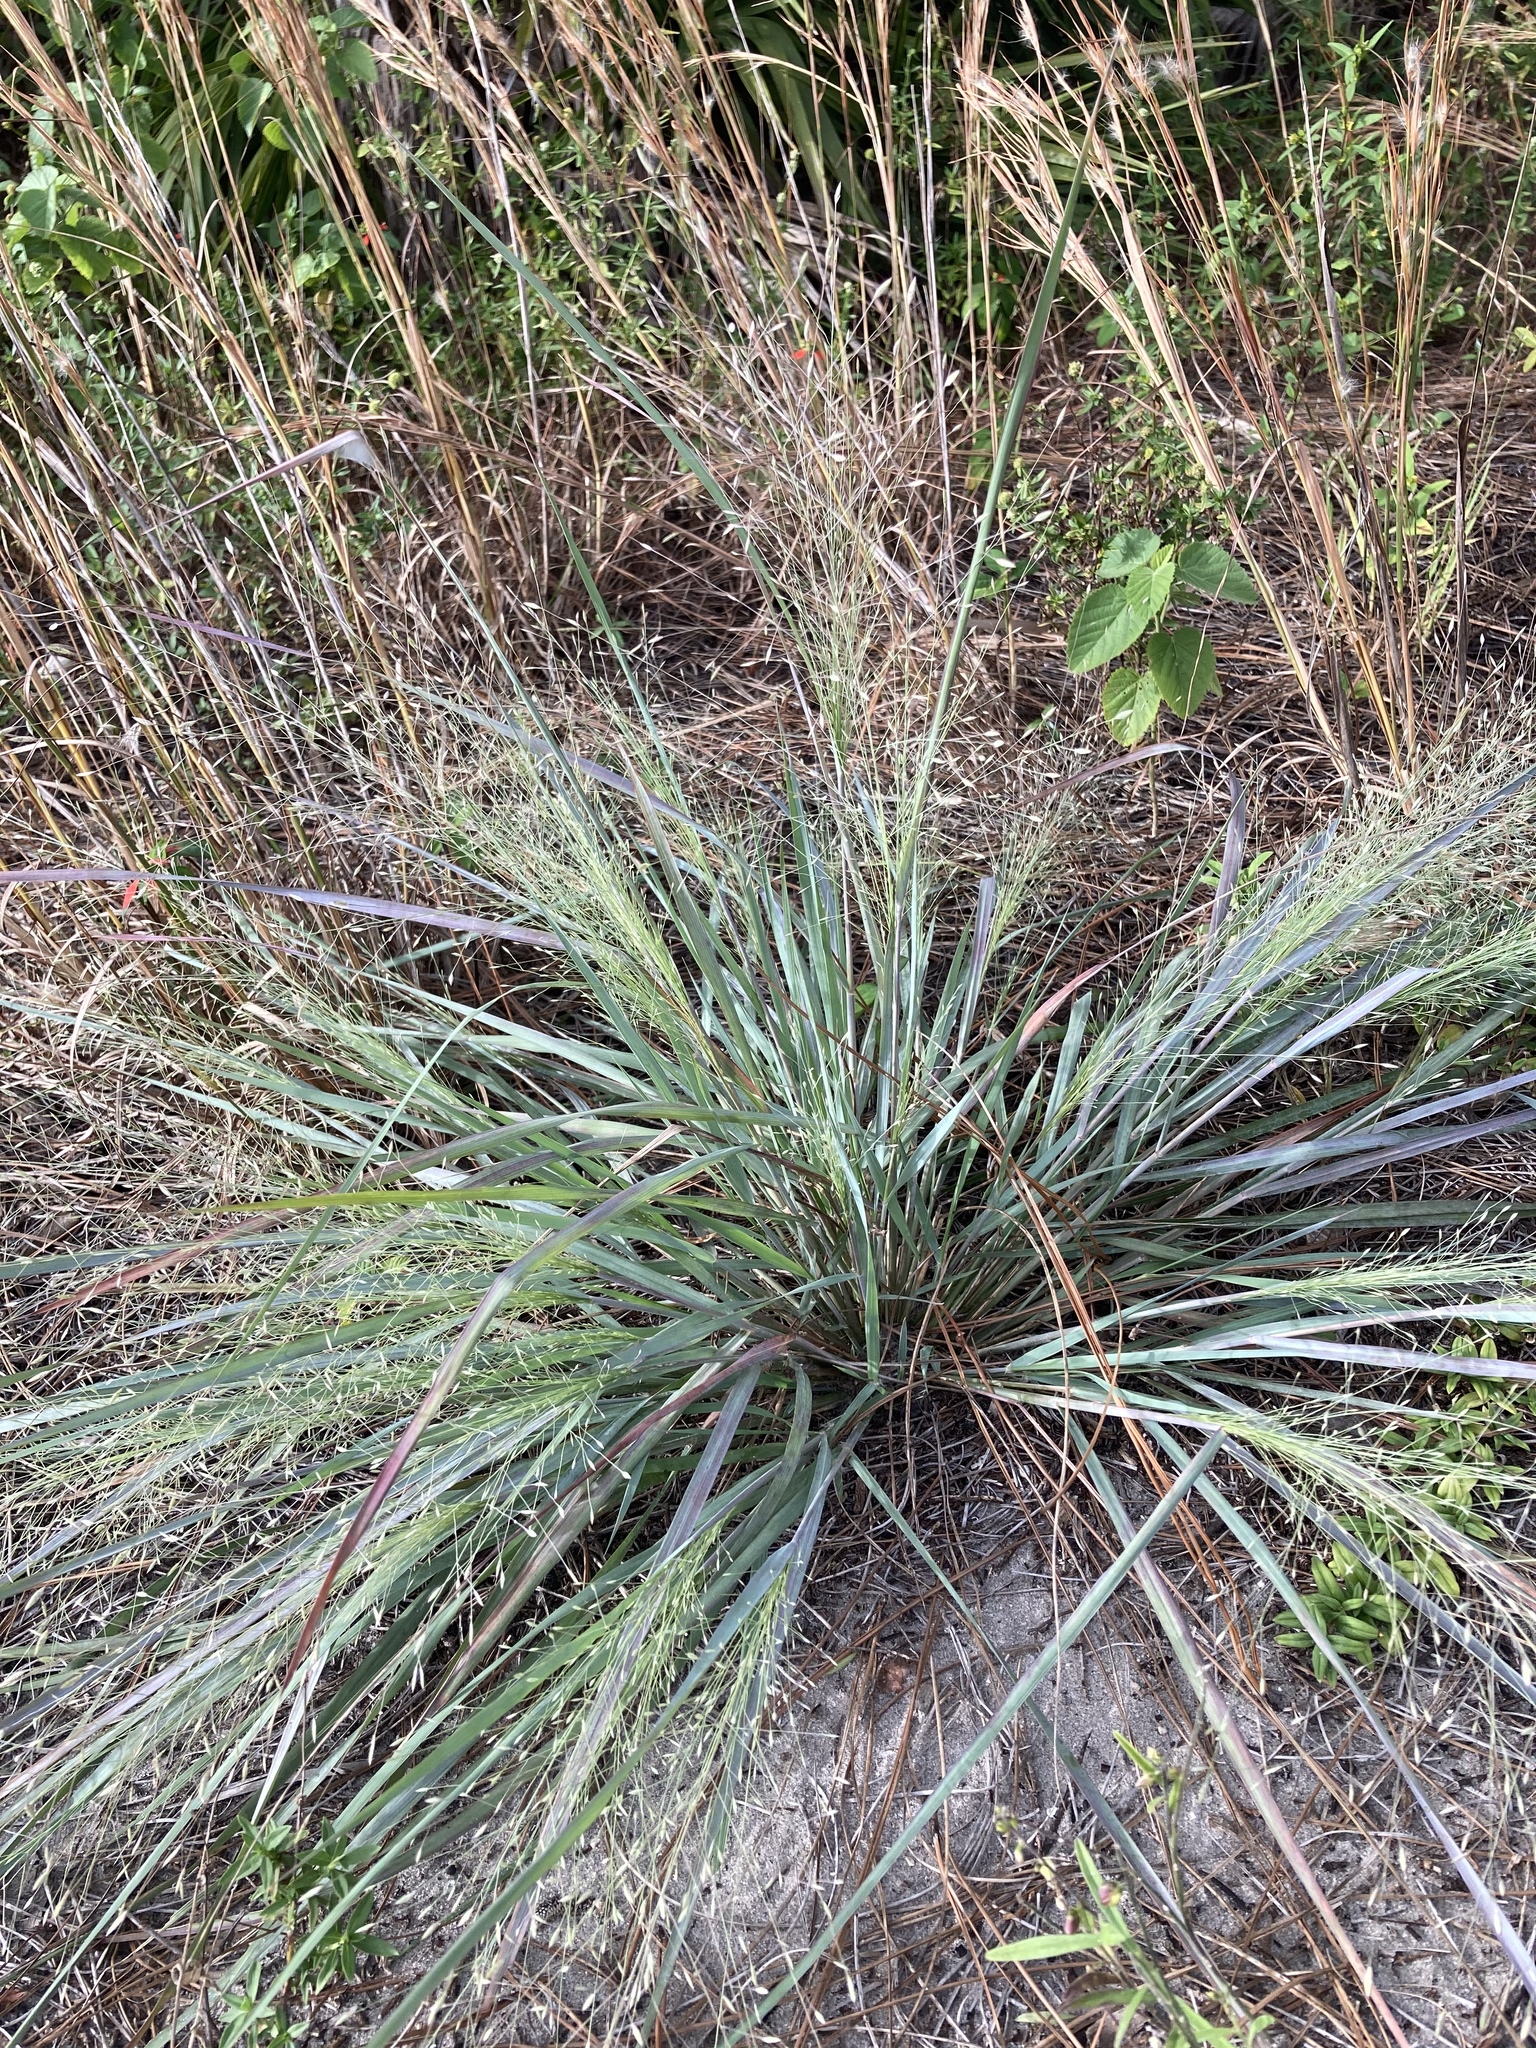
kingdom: Plantae
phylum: Tracheophyta
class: Liliopsida
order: Poales
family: Poaceae
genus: Eragrostis
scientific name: Eragrostis elliottii
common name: Elliott's love grass
